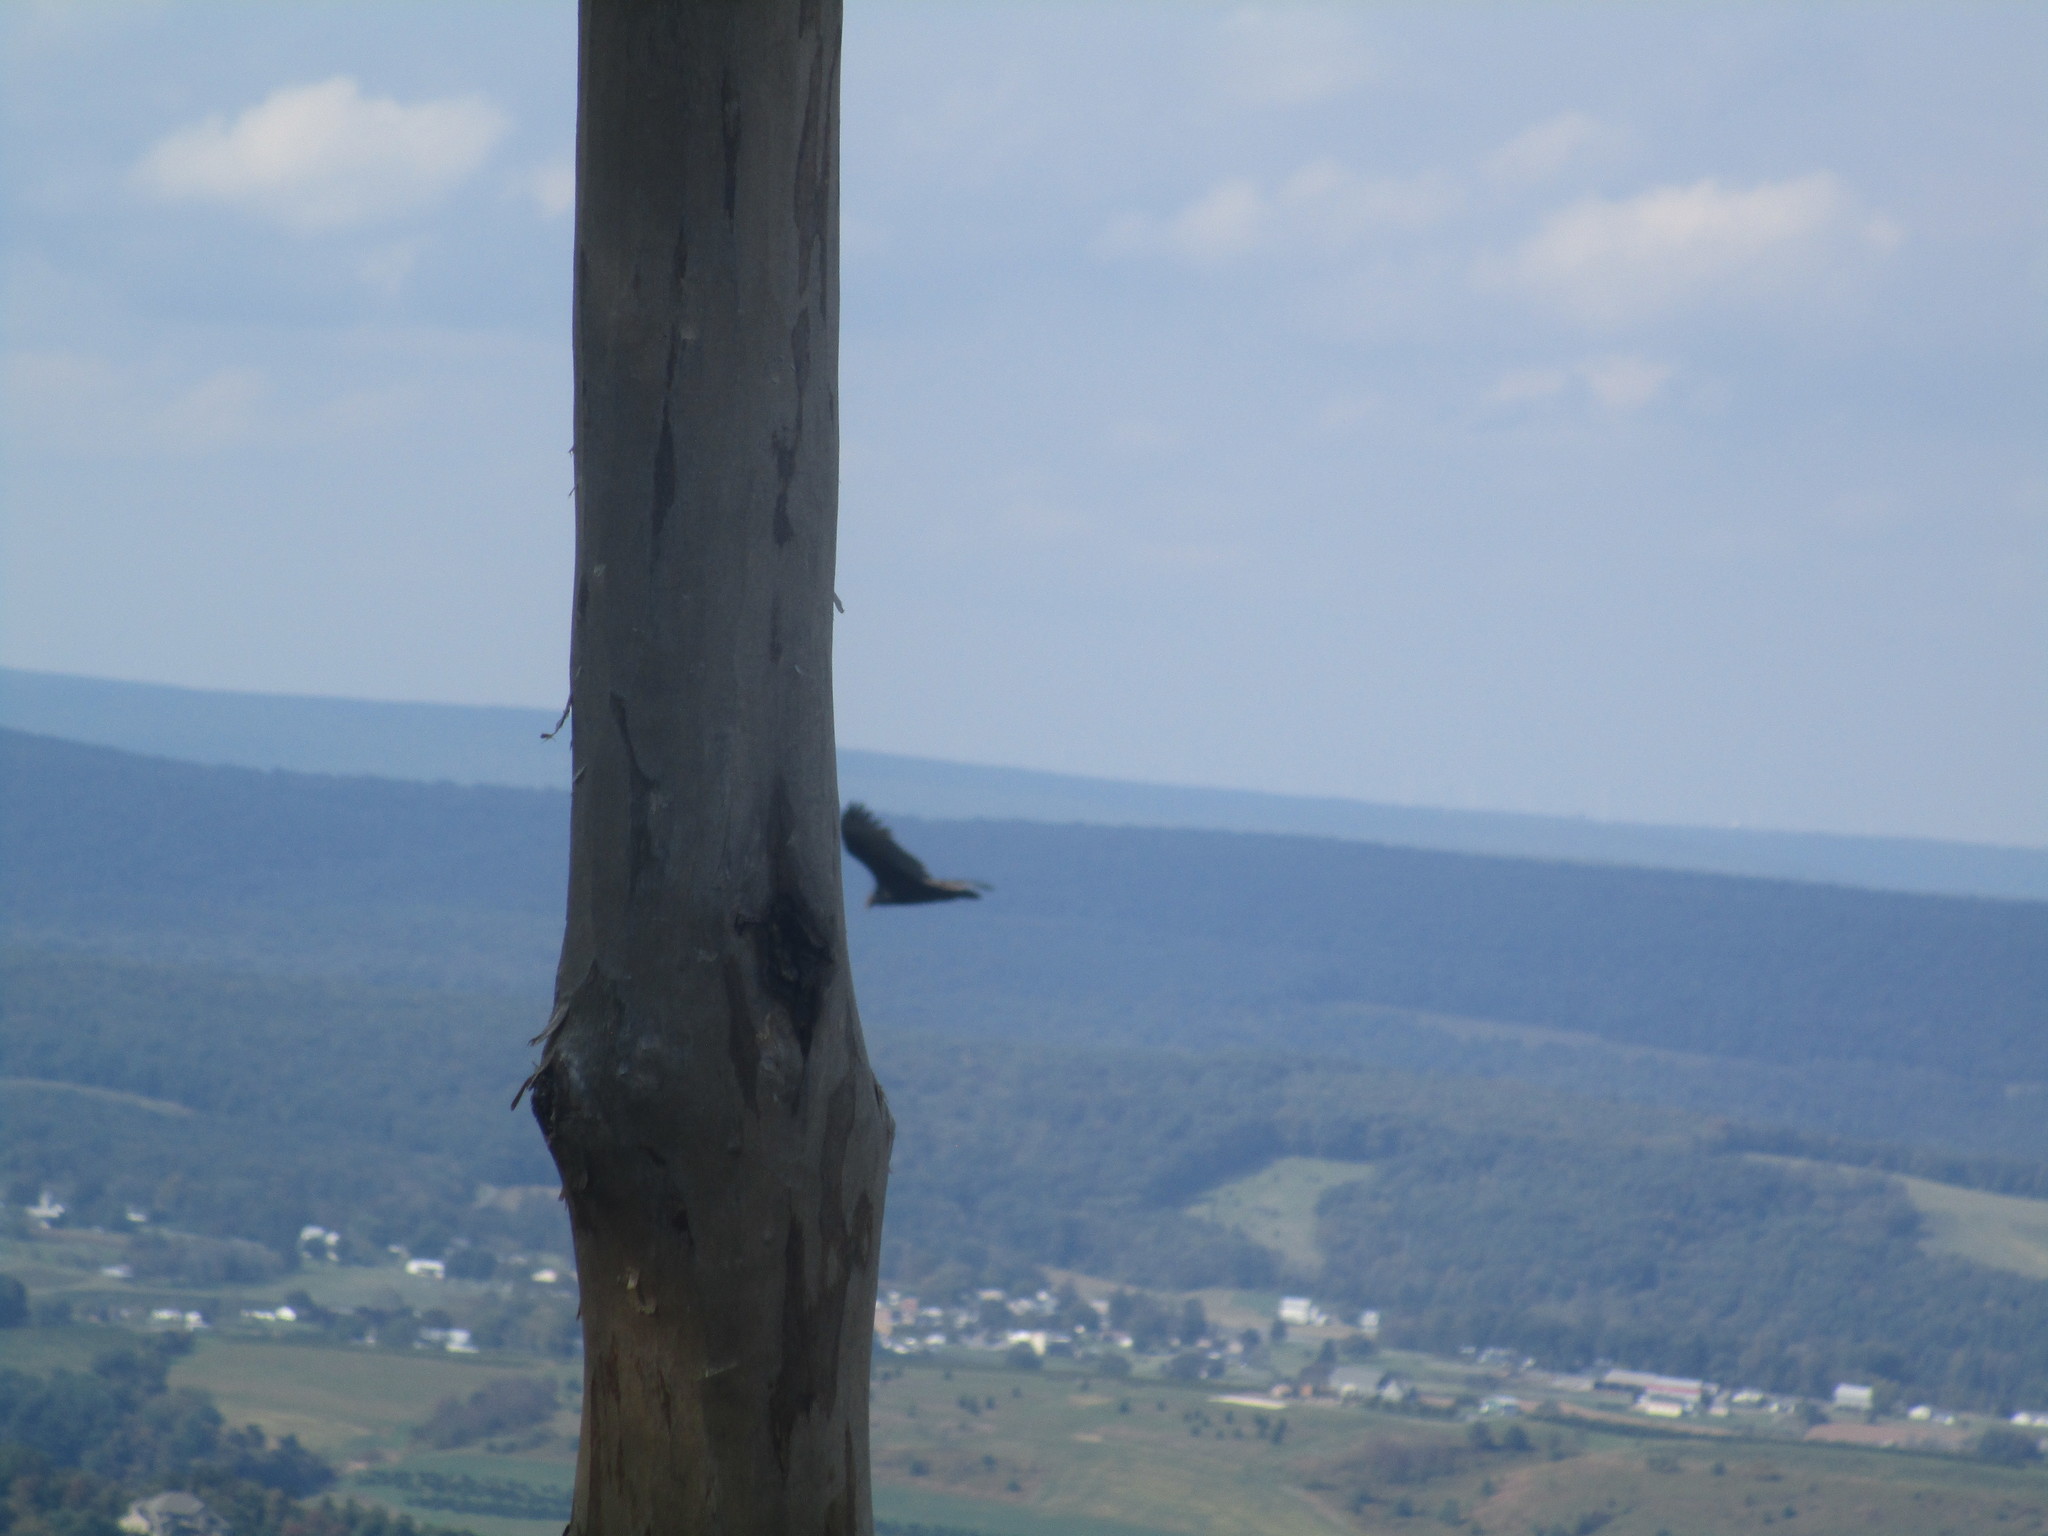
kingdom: Animalia
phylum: Chordata
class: Aves
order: Accipitriformes
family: Cathartidae
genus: Cathartes
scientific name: Cathartes aura
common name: Turkey vulture
